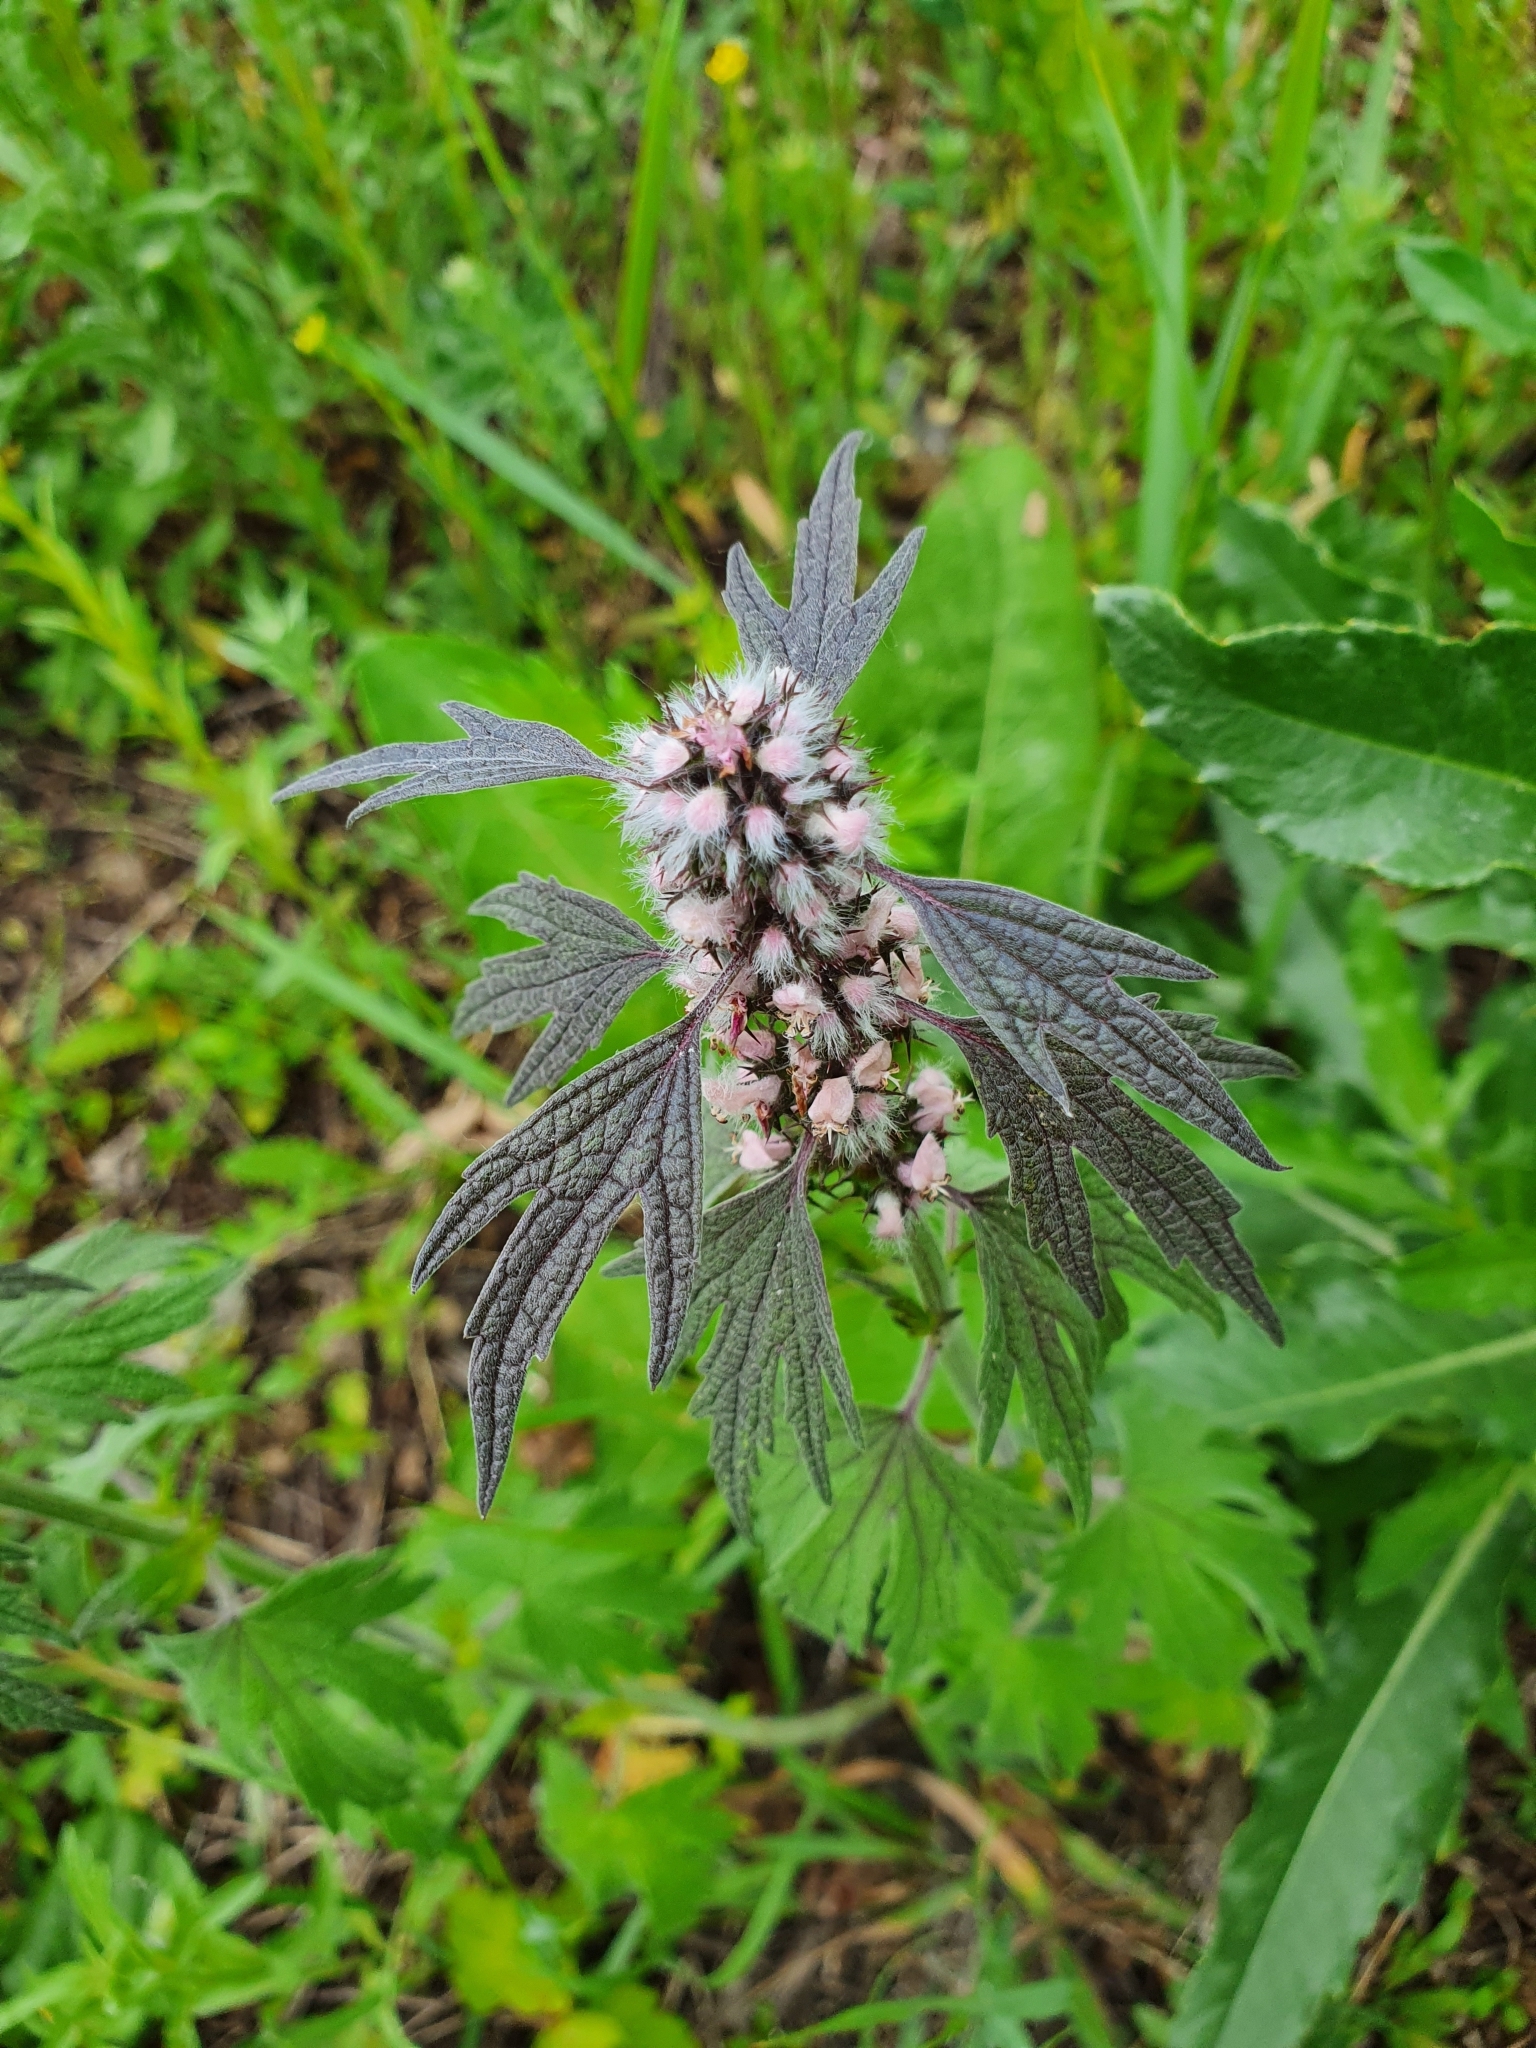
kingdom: Plantae
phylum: Tracheophyta
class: Magnoliopsida
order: Lamiales
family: Lamiaceae
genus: Leonurus
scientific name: Leonurus quinquelobatus
